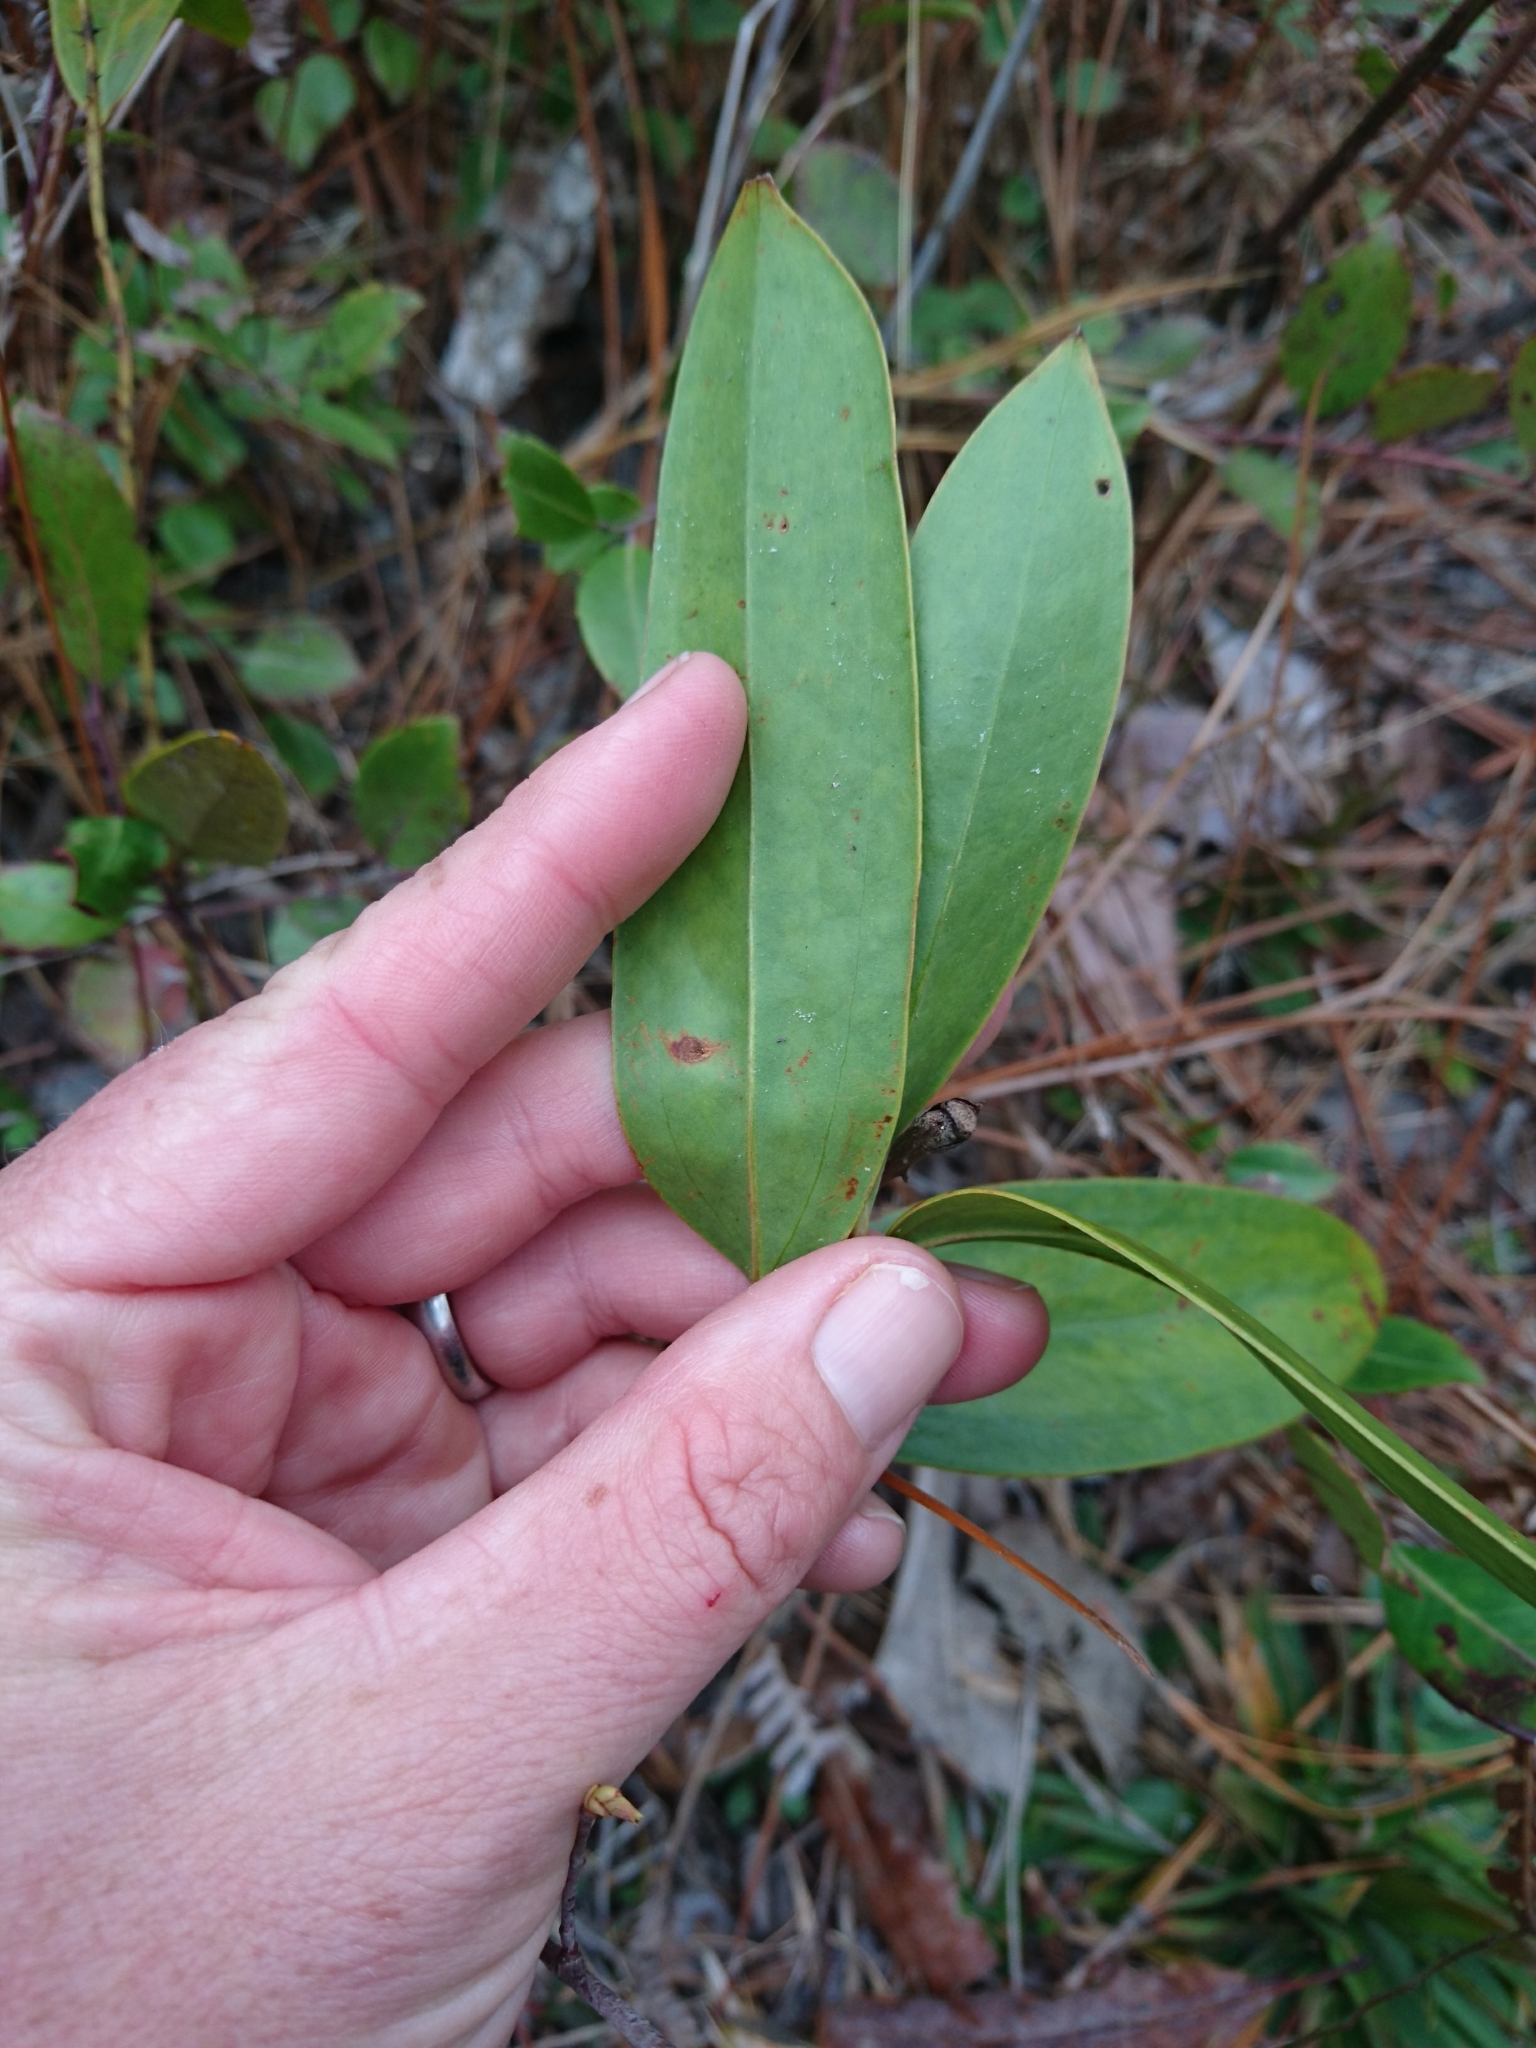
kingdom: Plantae
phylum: Tracheophyta
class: Liliopsida
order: Liliales
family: Smilacaceae
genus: Smilax
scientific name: Smilax maritima
